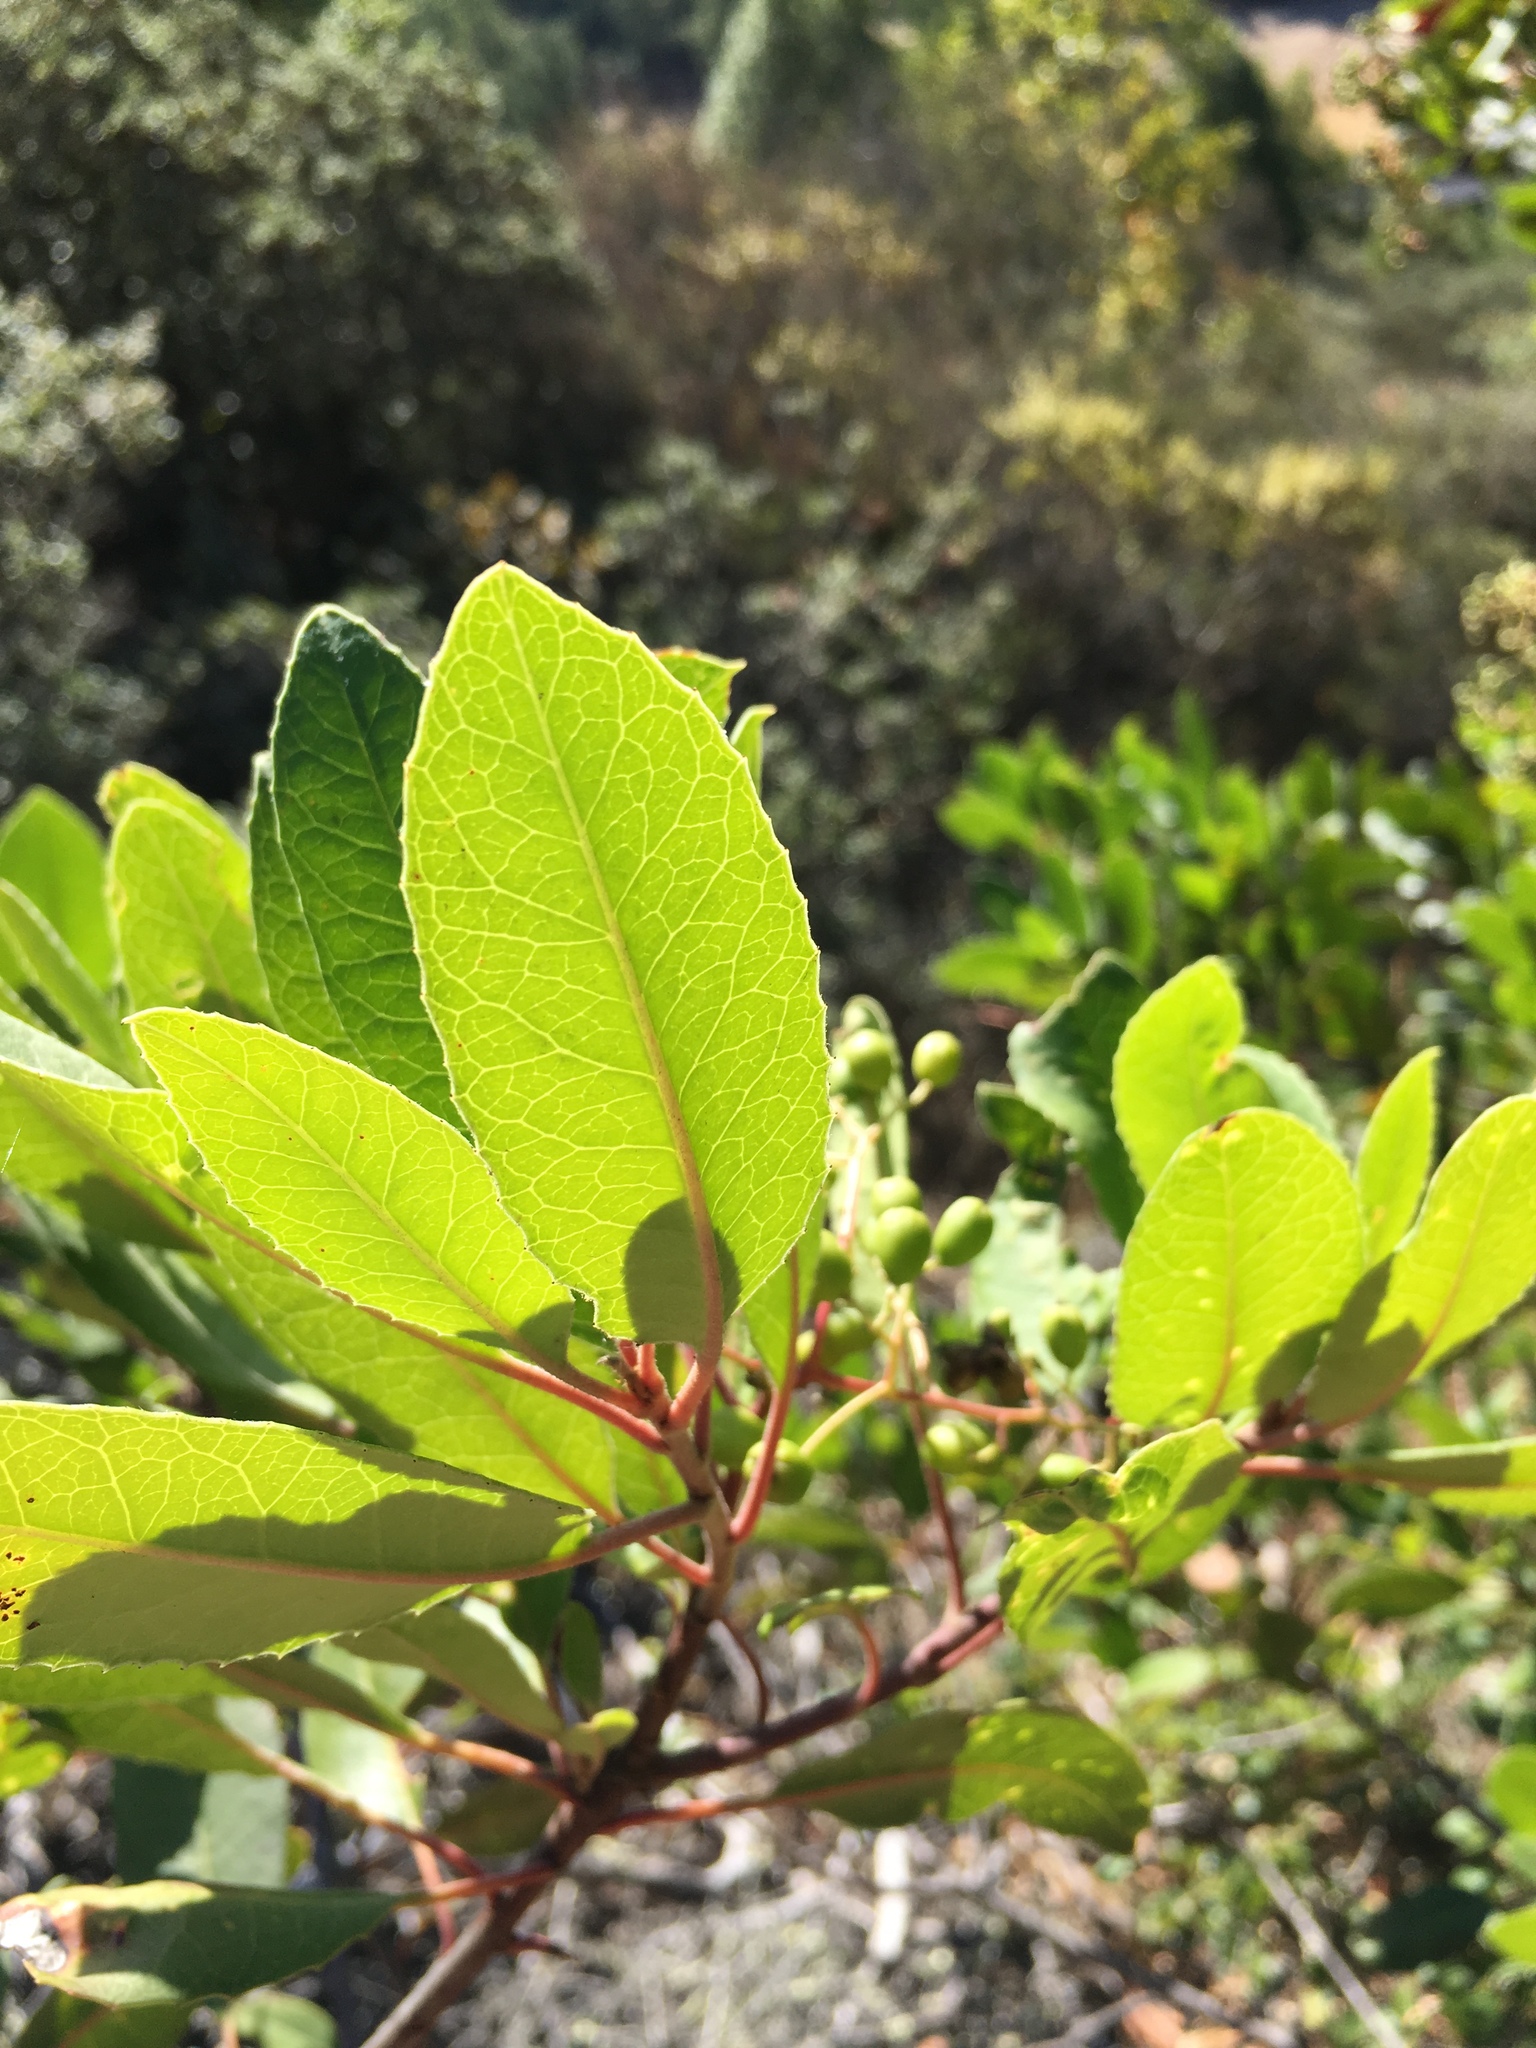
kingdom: Plantae
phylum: Tracheophyta
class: Magnoliopsida
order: Rosales
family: Rosaceae
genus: Heteromeles
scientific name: Heteromeles arbutifolia
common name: California-holly
